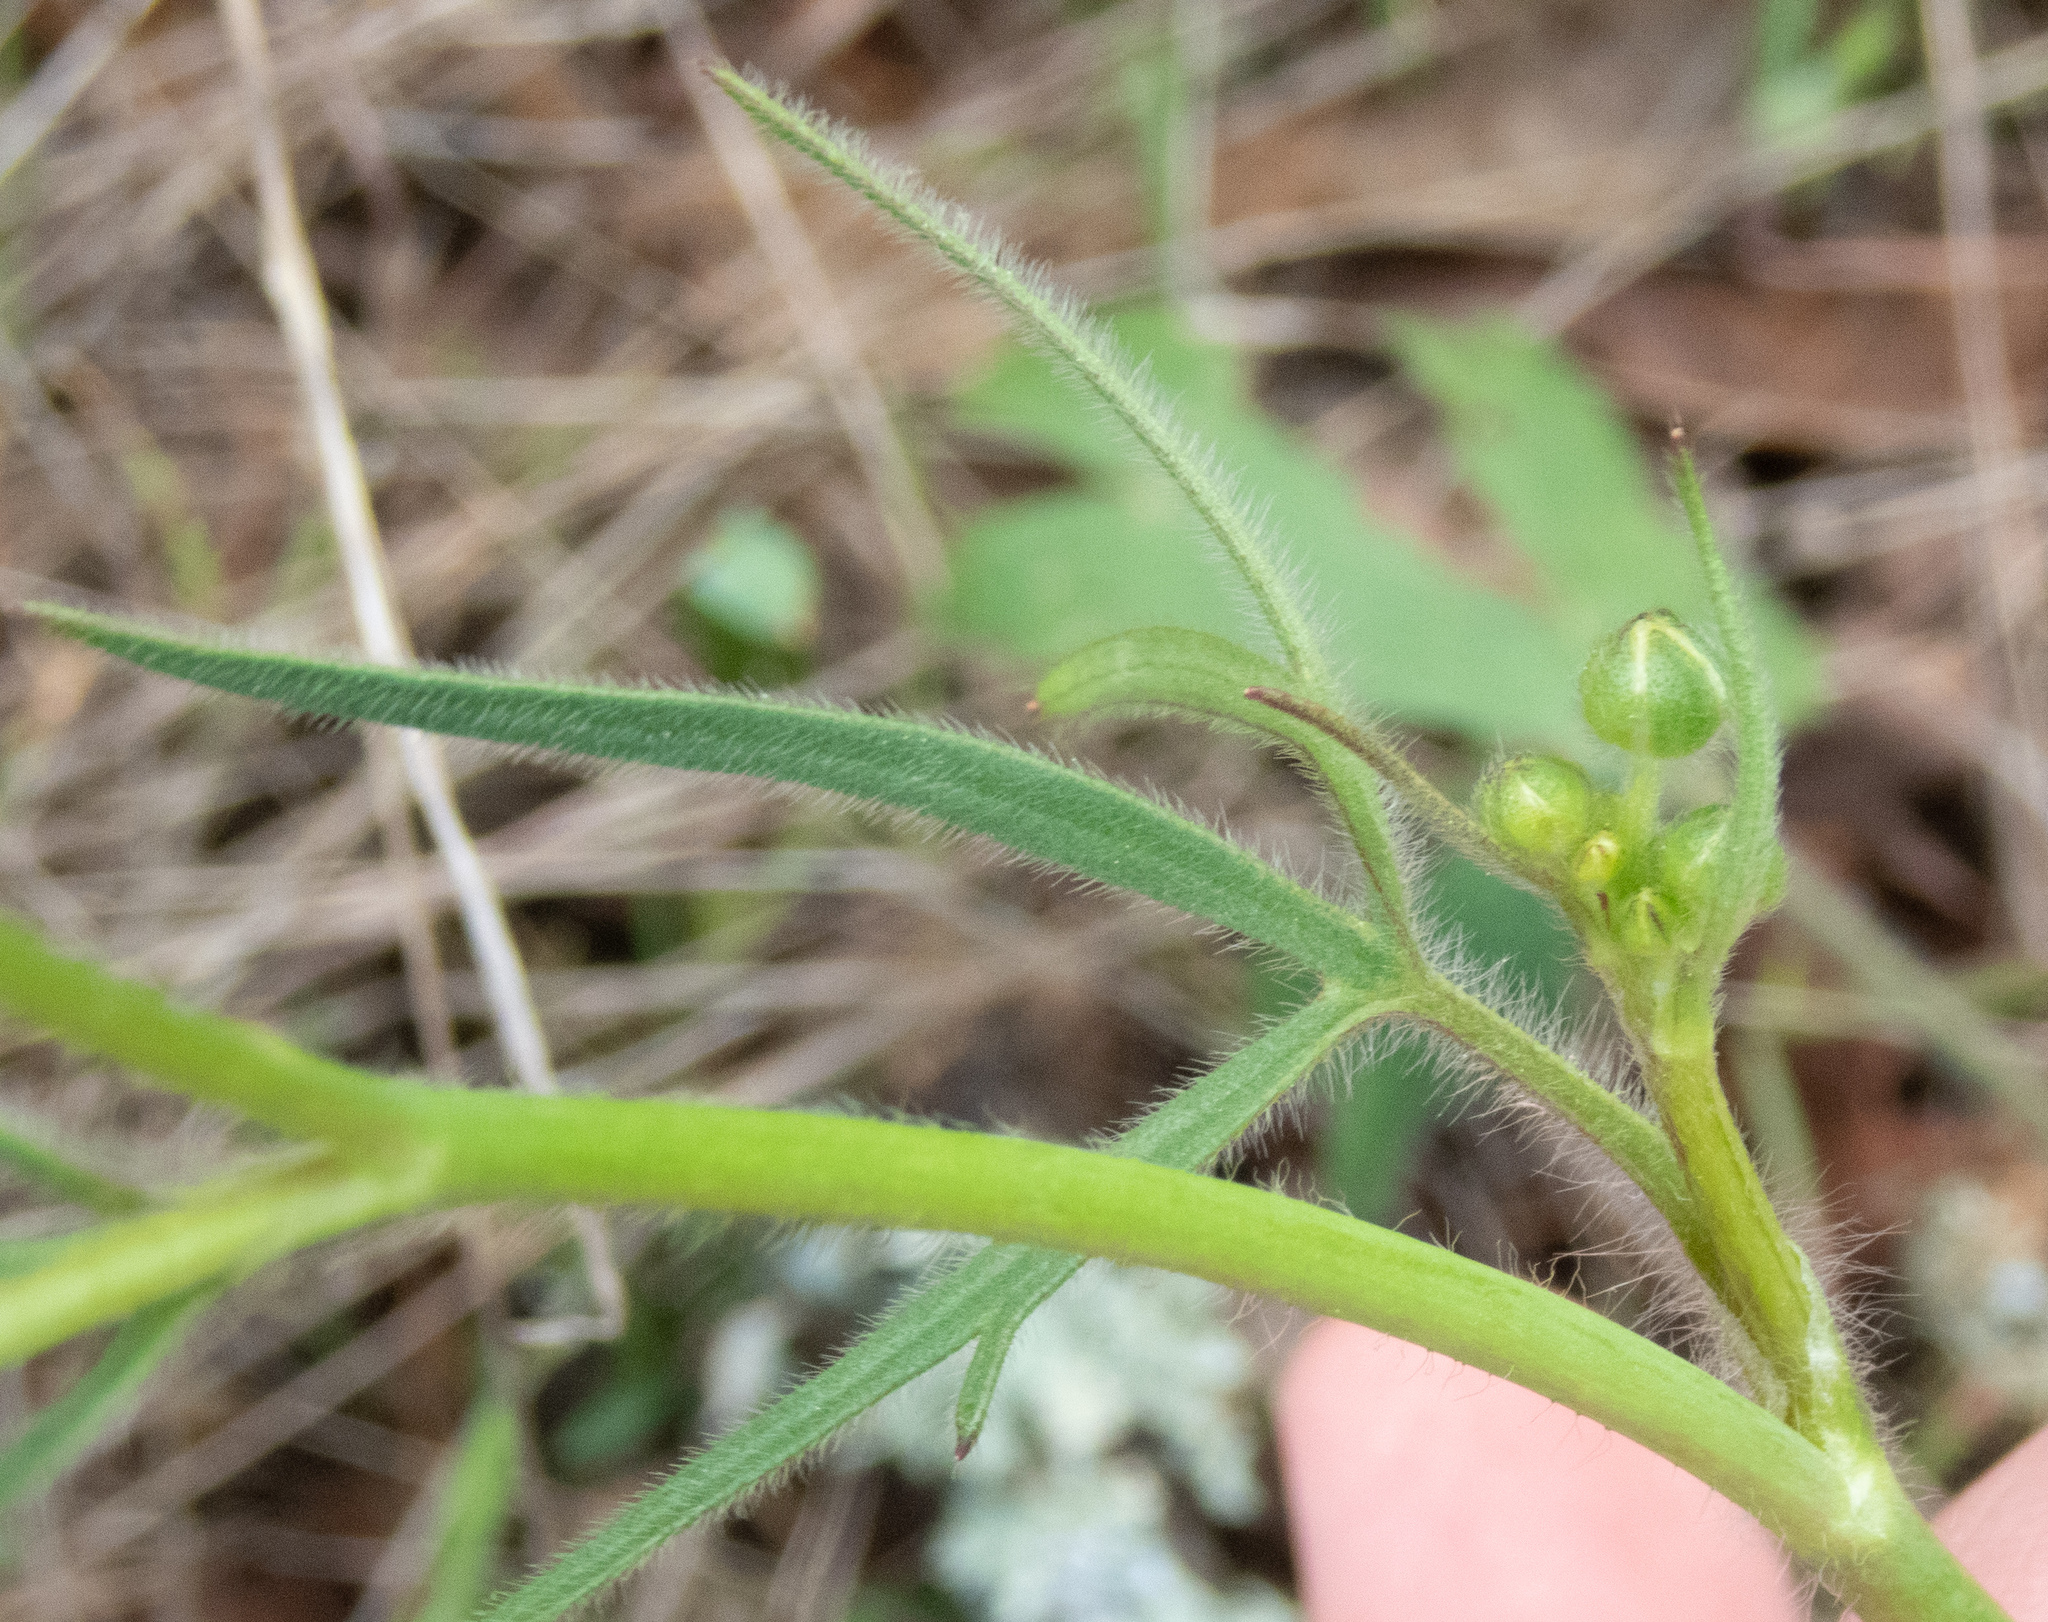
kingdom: Plantae
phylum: Tracheophyta
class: Magnoliopsida
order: Ranunculales
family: Ranunculaceae
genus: Ranunculus
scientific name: Ranunculus occidentalis
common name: Western buttercup
